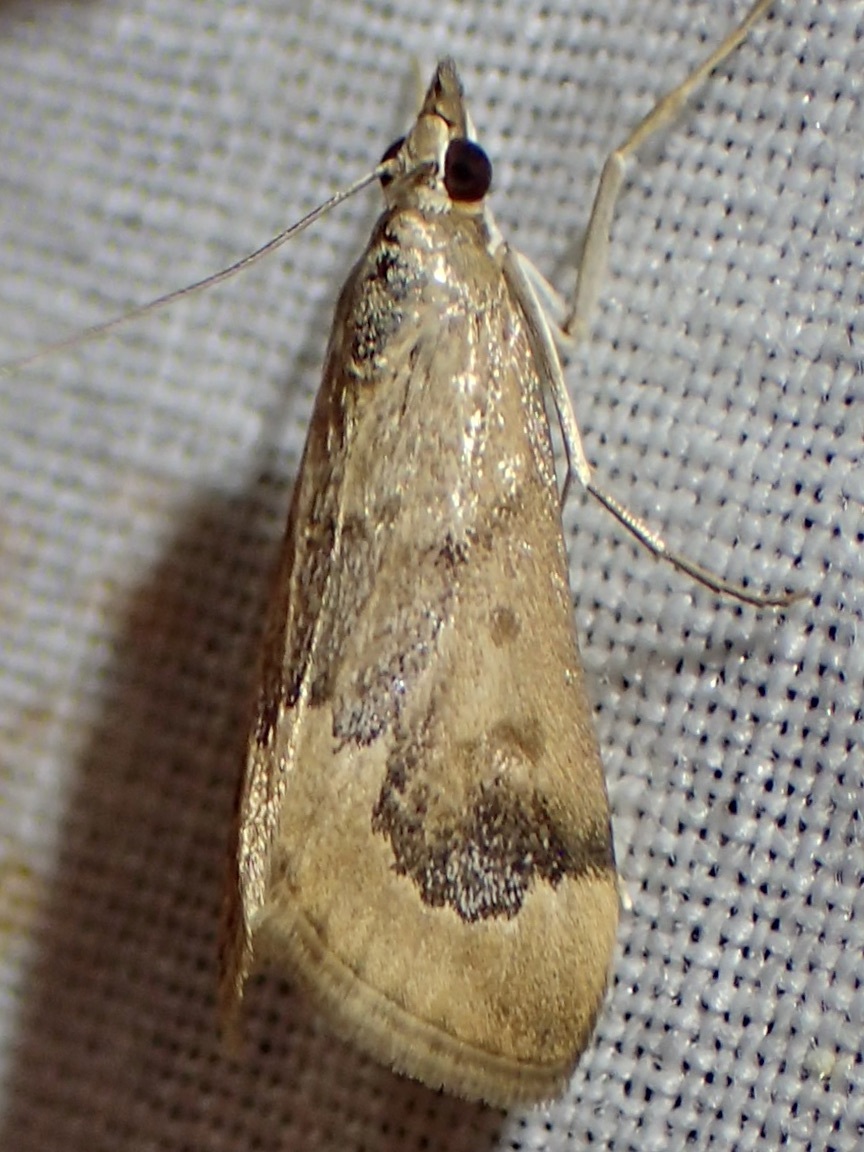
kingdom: Animalia
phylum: Arthropoda
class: Insecta
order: Lepidoptera
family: Crambidae
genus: Loxostege
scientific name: Loxostege typhonalis
